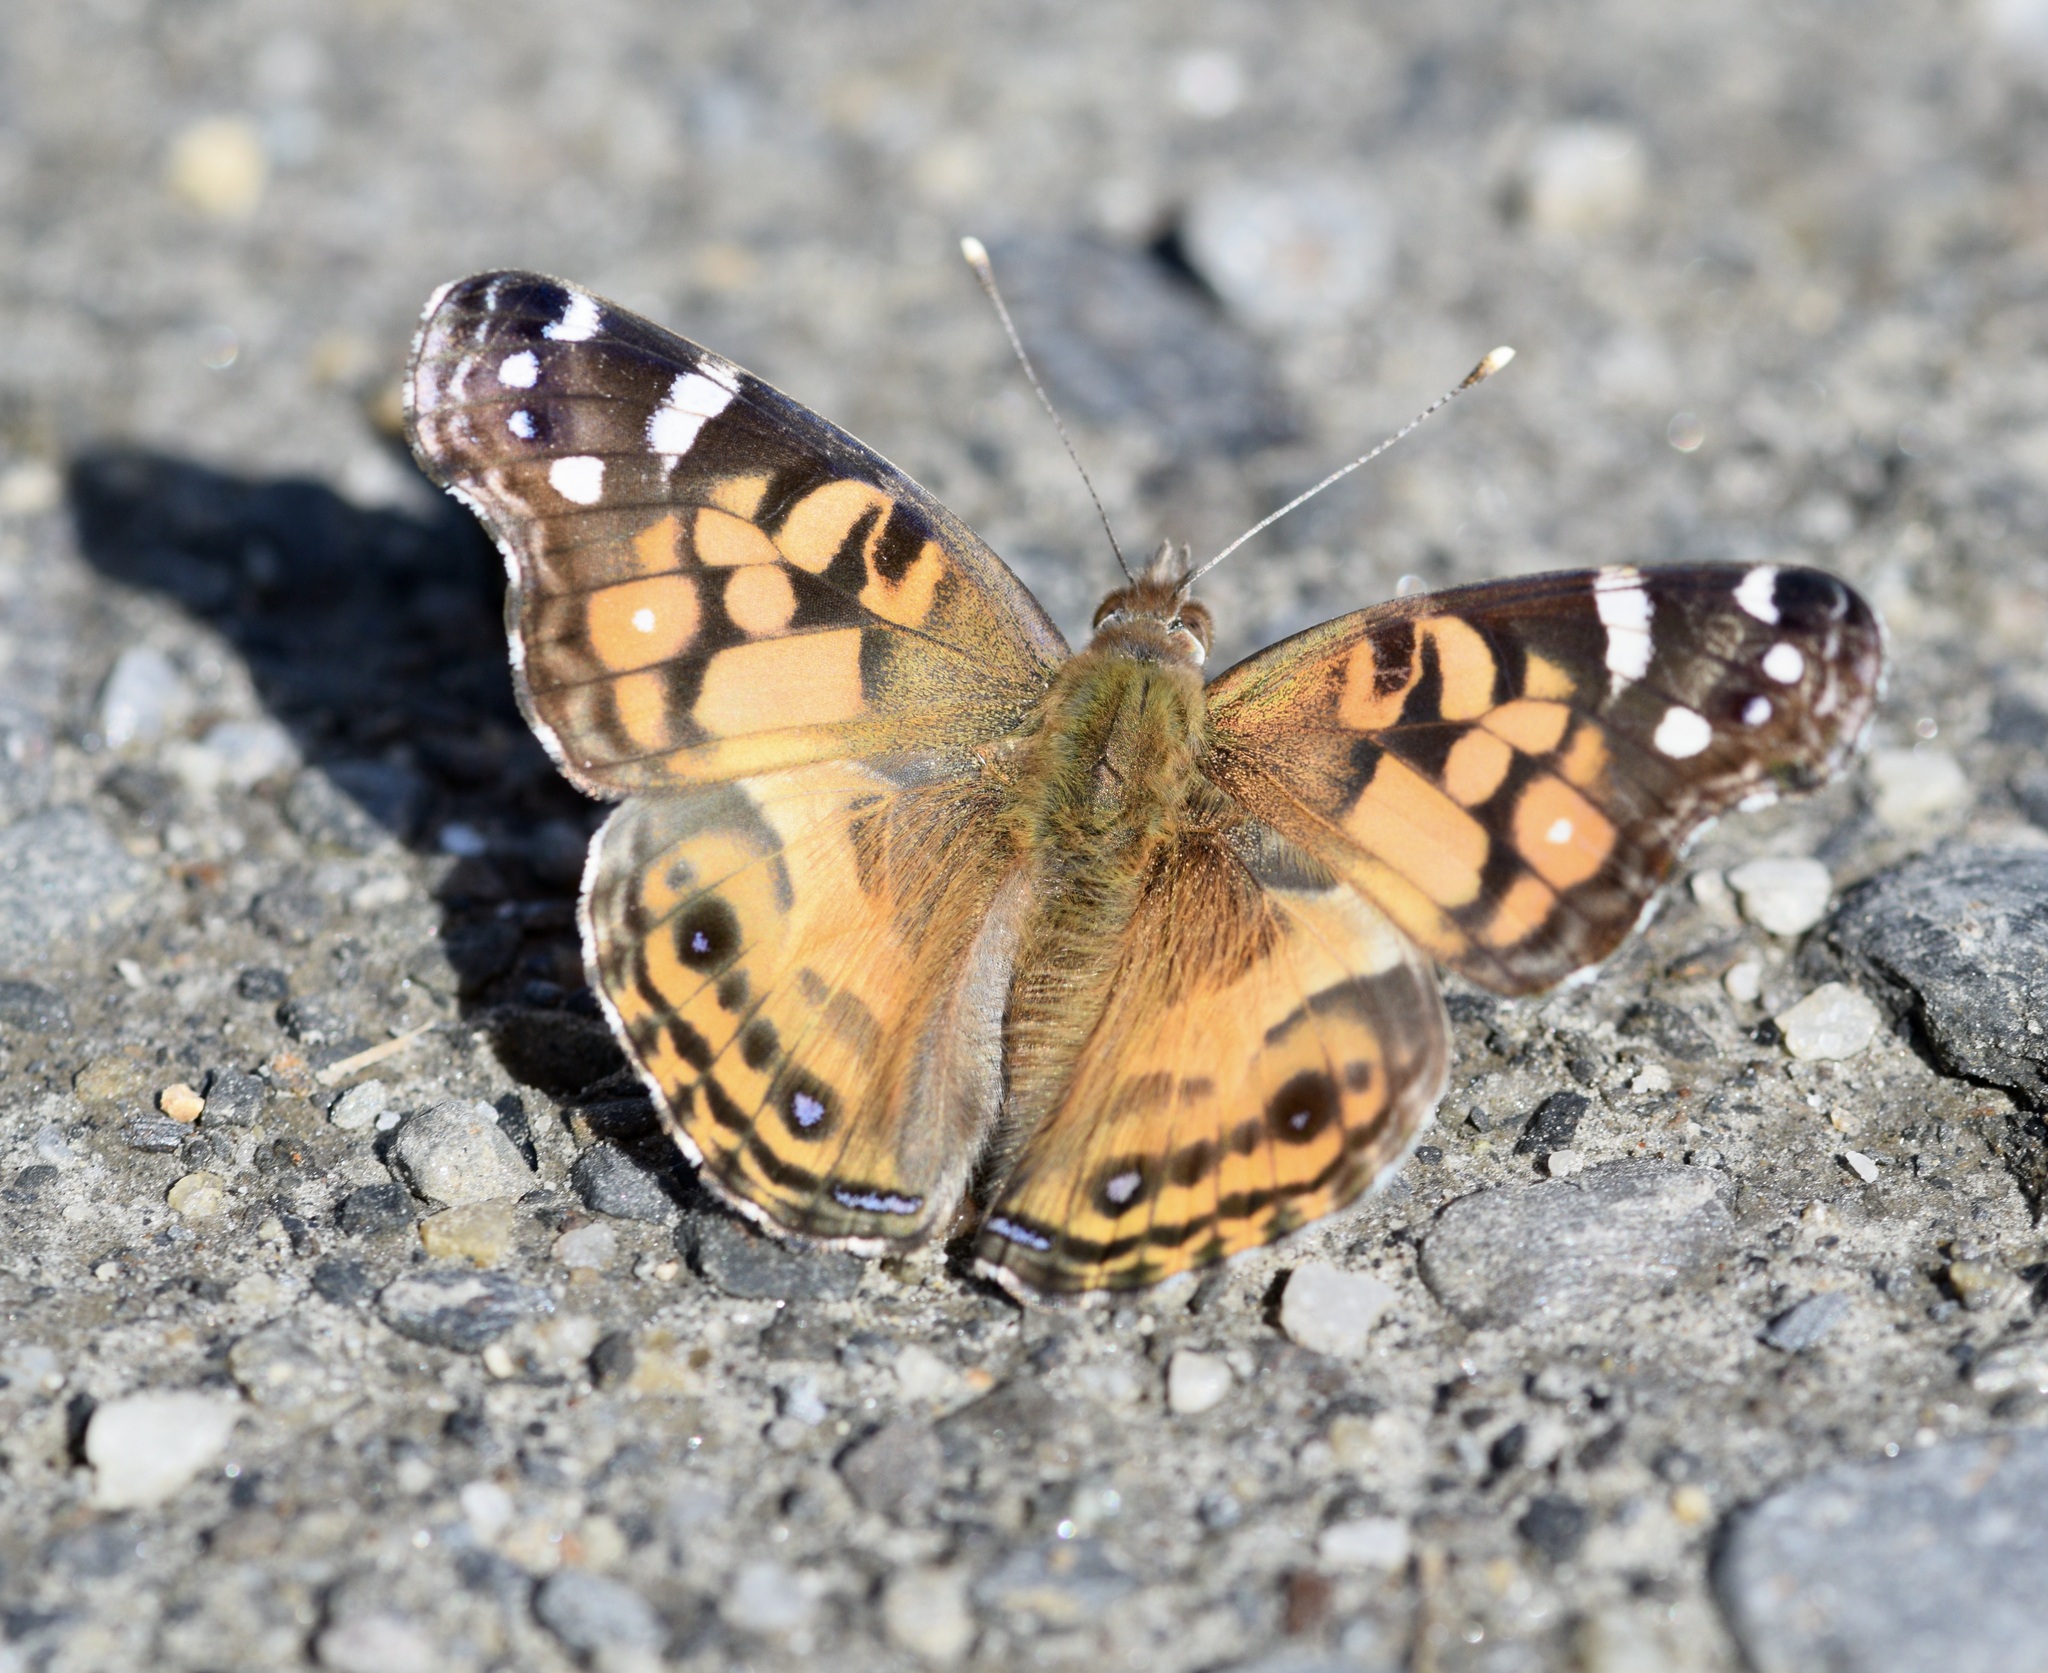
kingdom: Animalia
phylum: Arthropoda
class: Insecta
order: Lepidoptera
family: Nymphalidae
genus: Vanessa
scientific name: Vanessa virginiensis
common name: American lady
